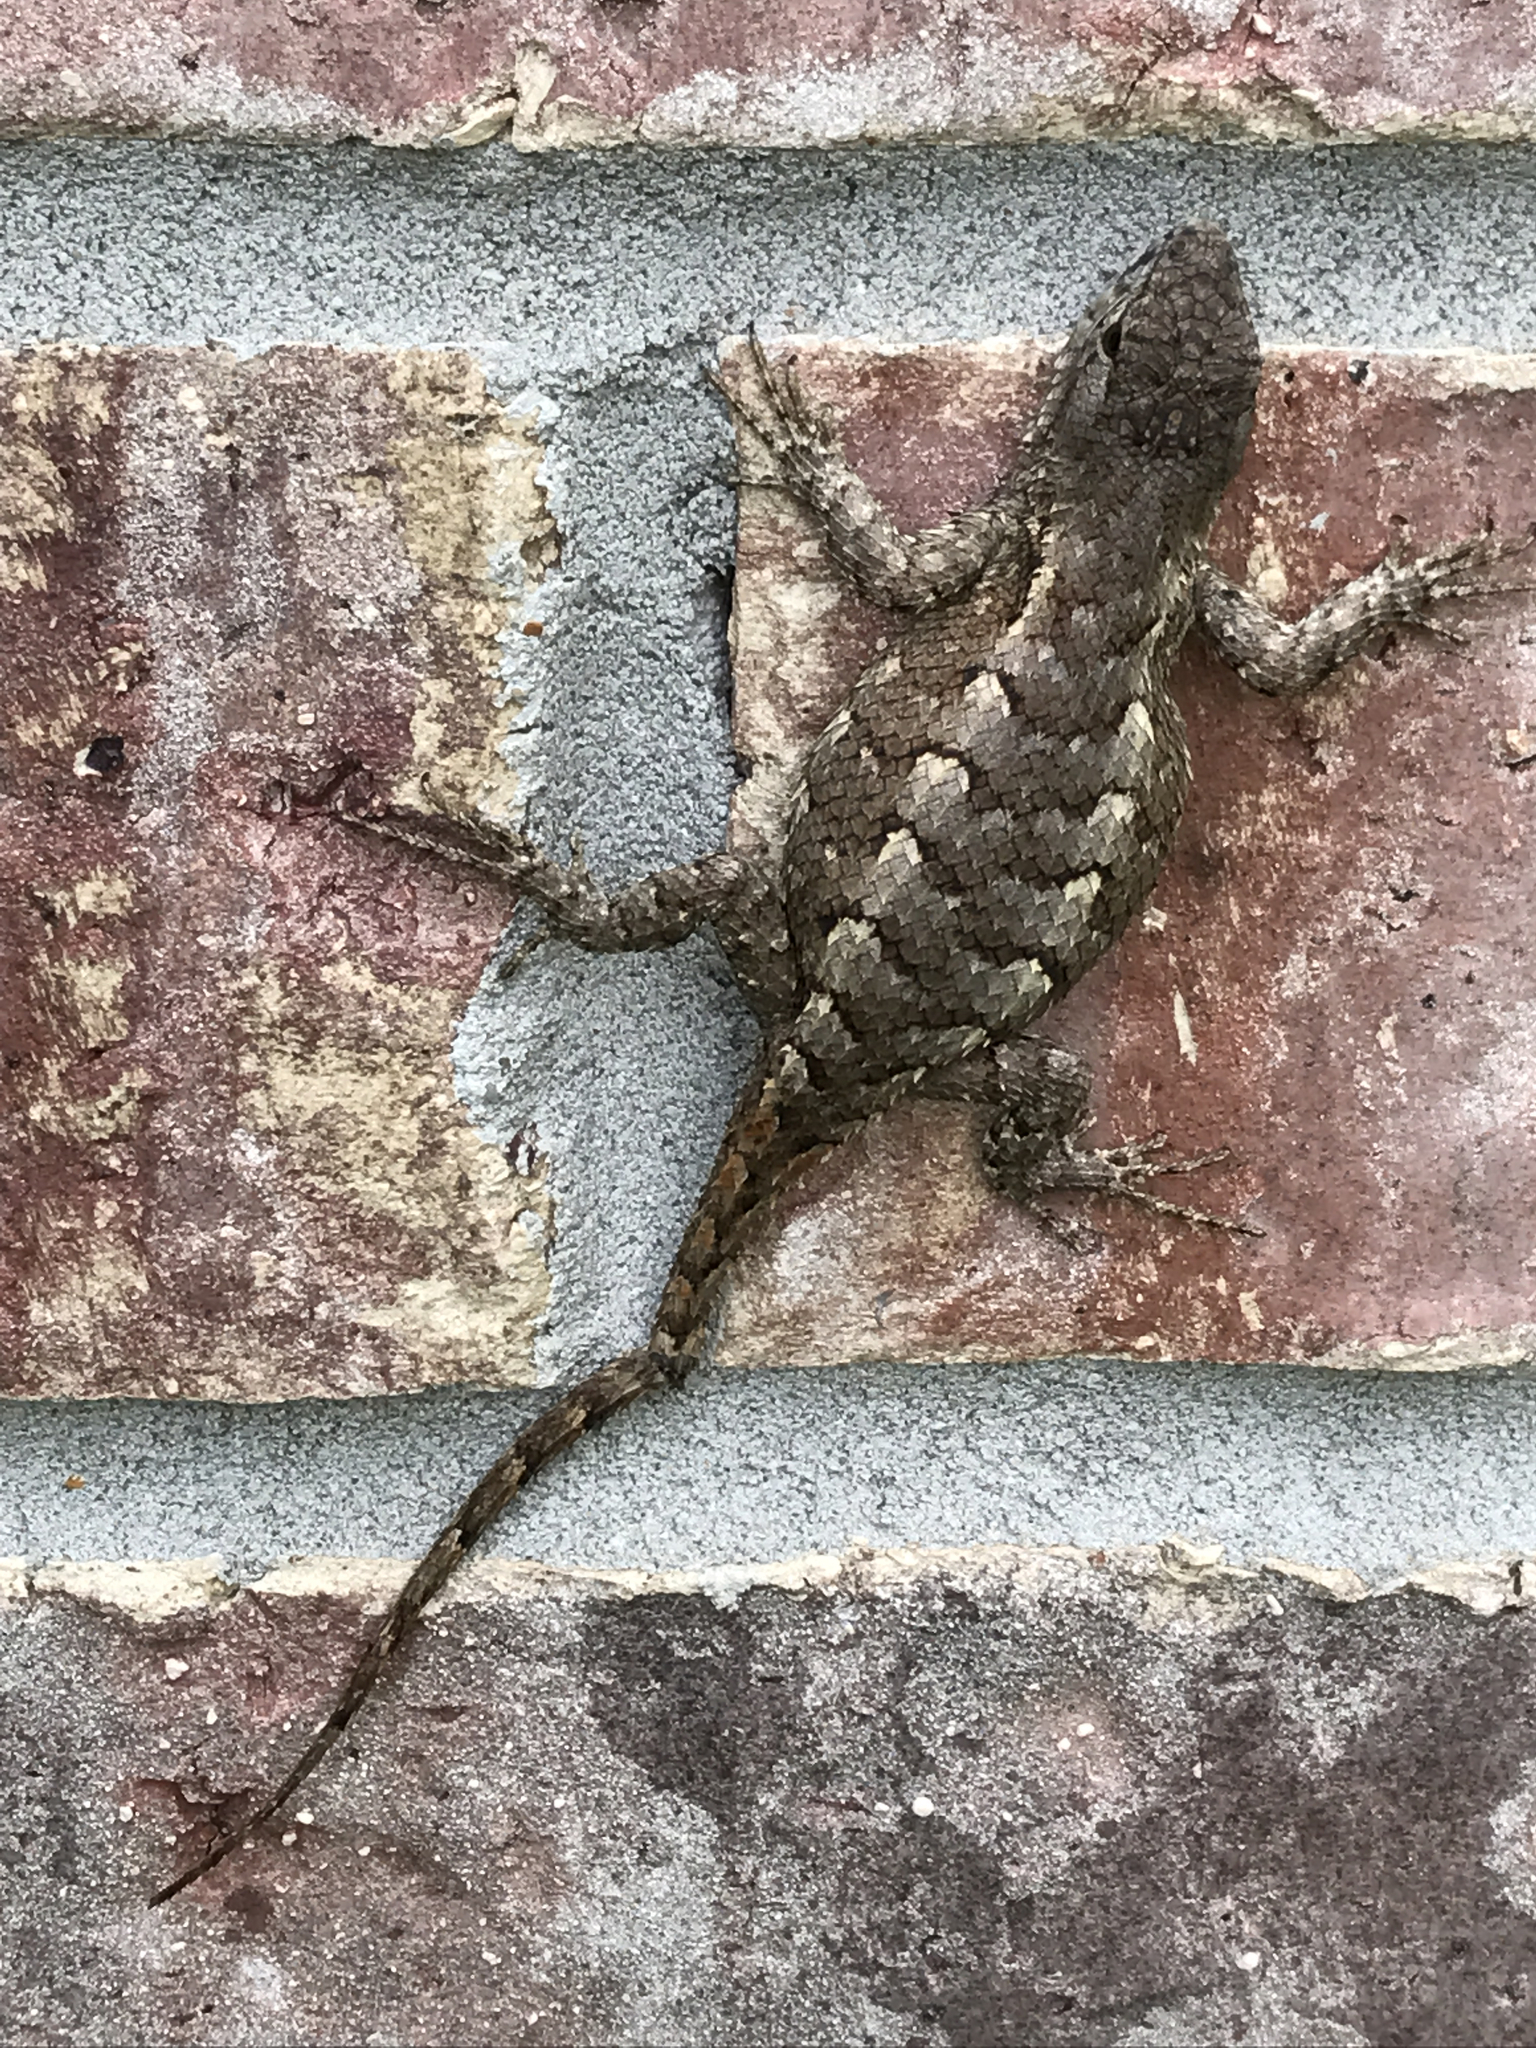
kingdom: Animalia
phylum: Chordata
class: Squamata
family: Phrynosomatidae
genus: Sceloporus
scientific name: Sceloporus consobrinus
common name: Southern prairie lizard
